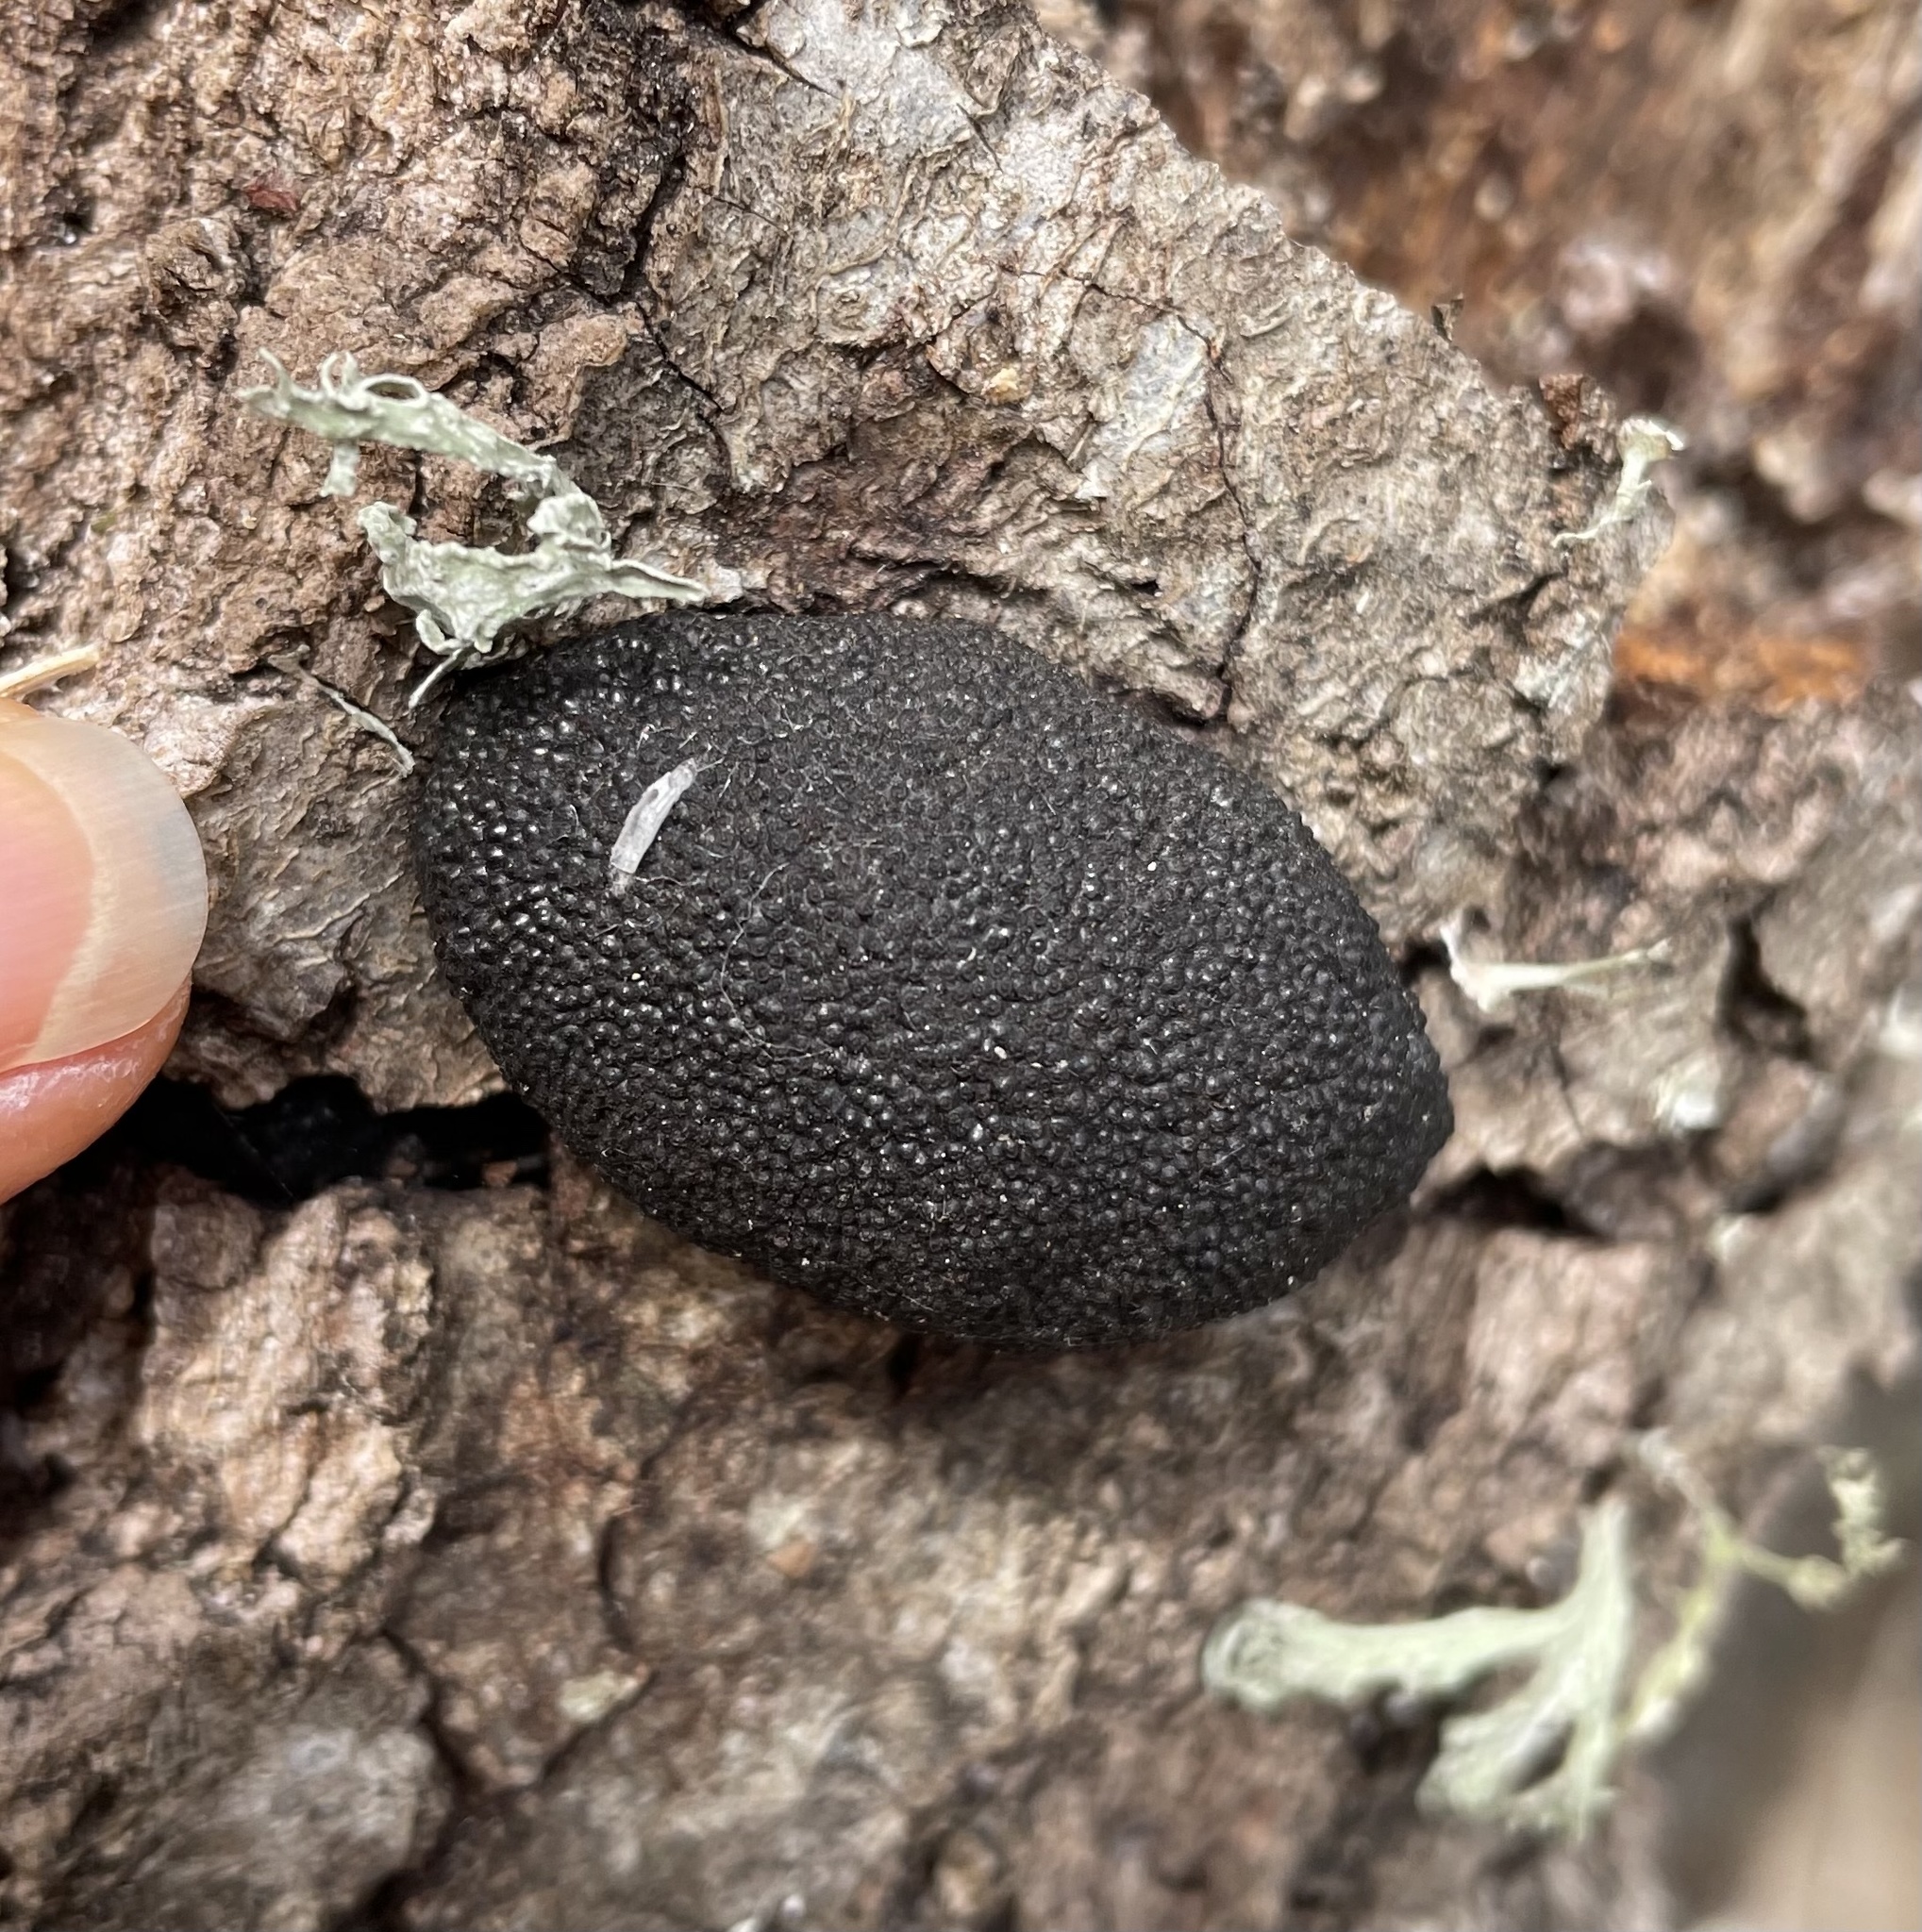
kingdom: Fungi
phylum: Ascomycota
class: Sordariomycetes
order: Xylariales
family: Hypoxylaceae
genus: Annulohypoxylon
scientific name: Annulohypoxylon thouarsianum
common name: Cramp balls
